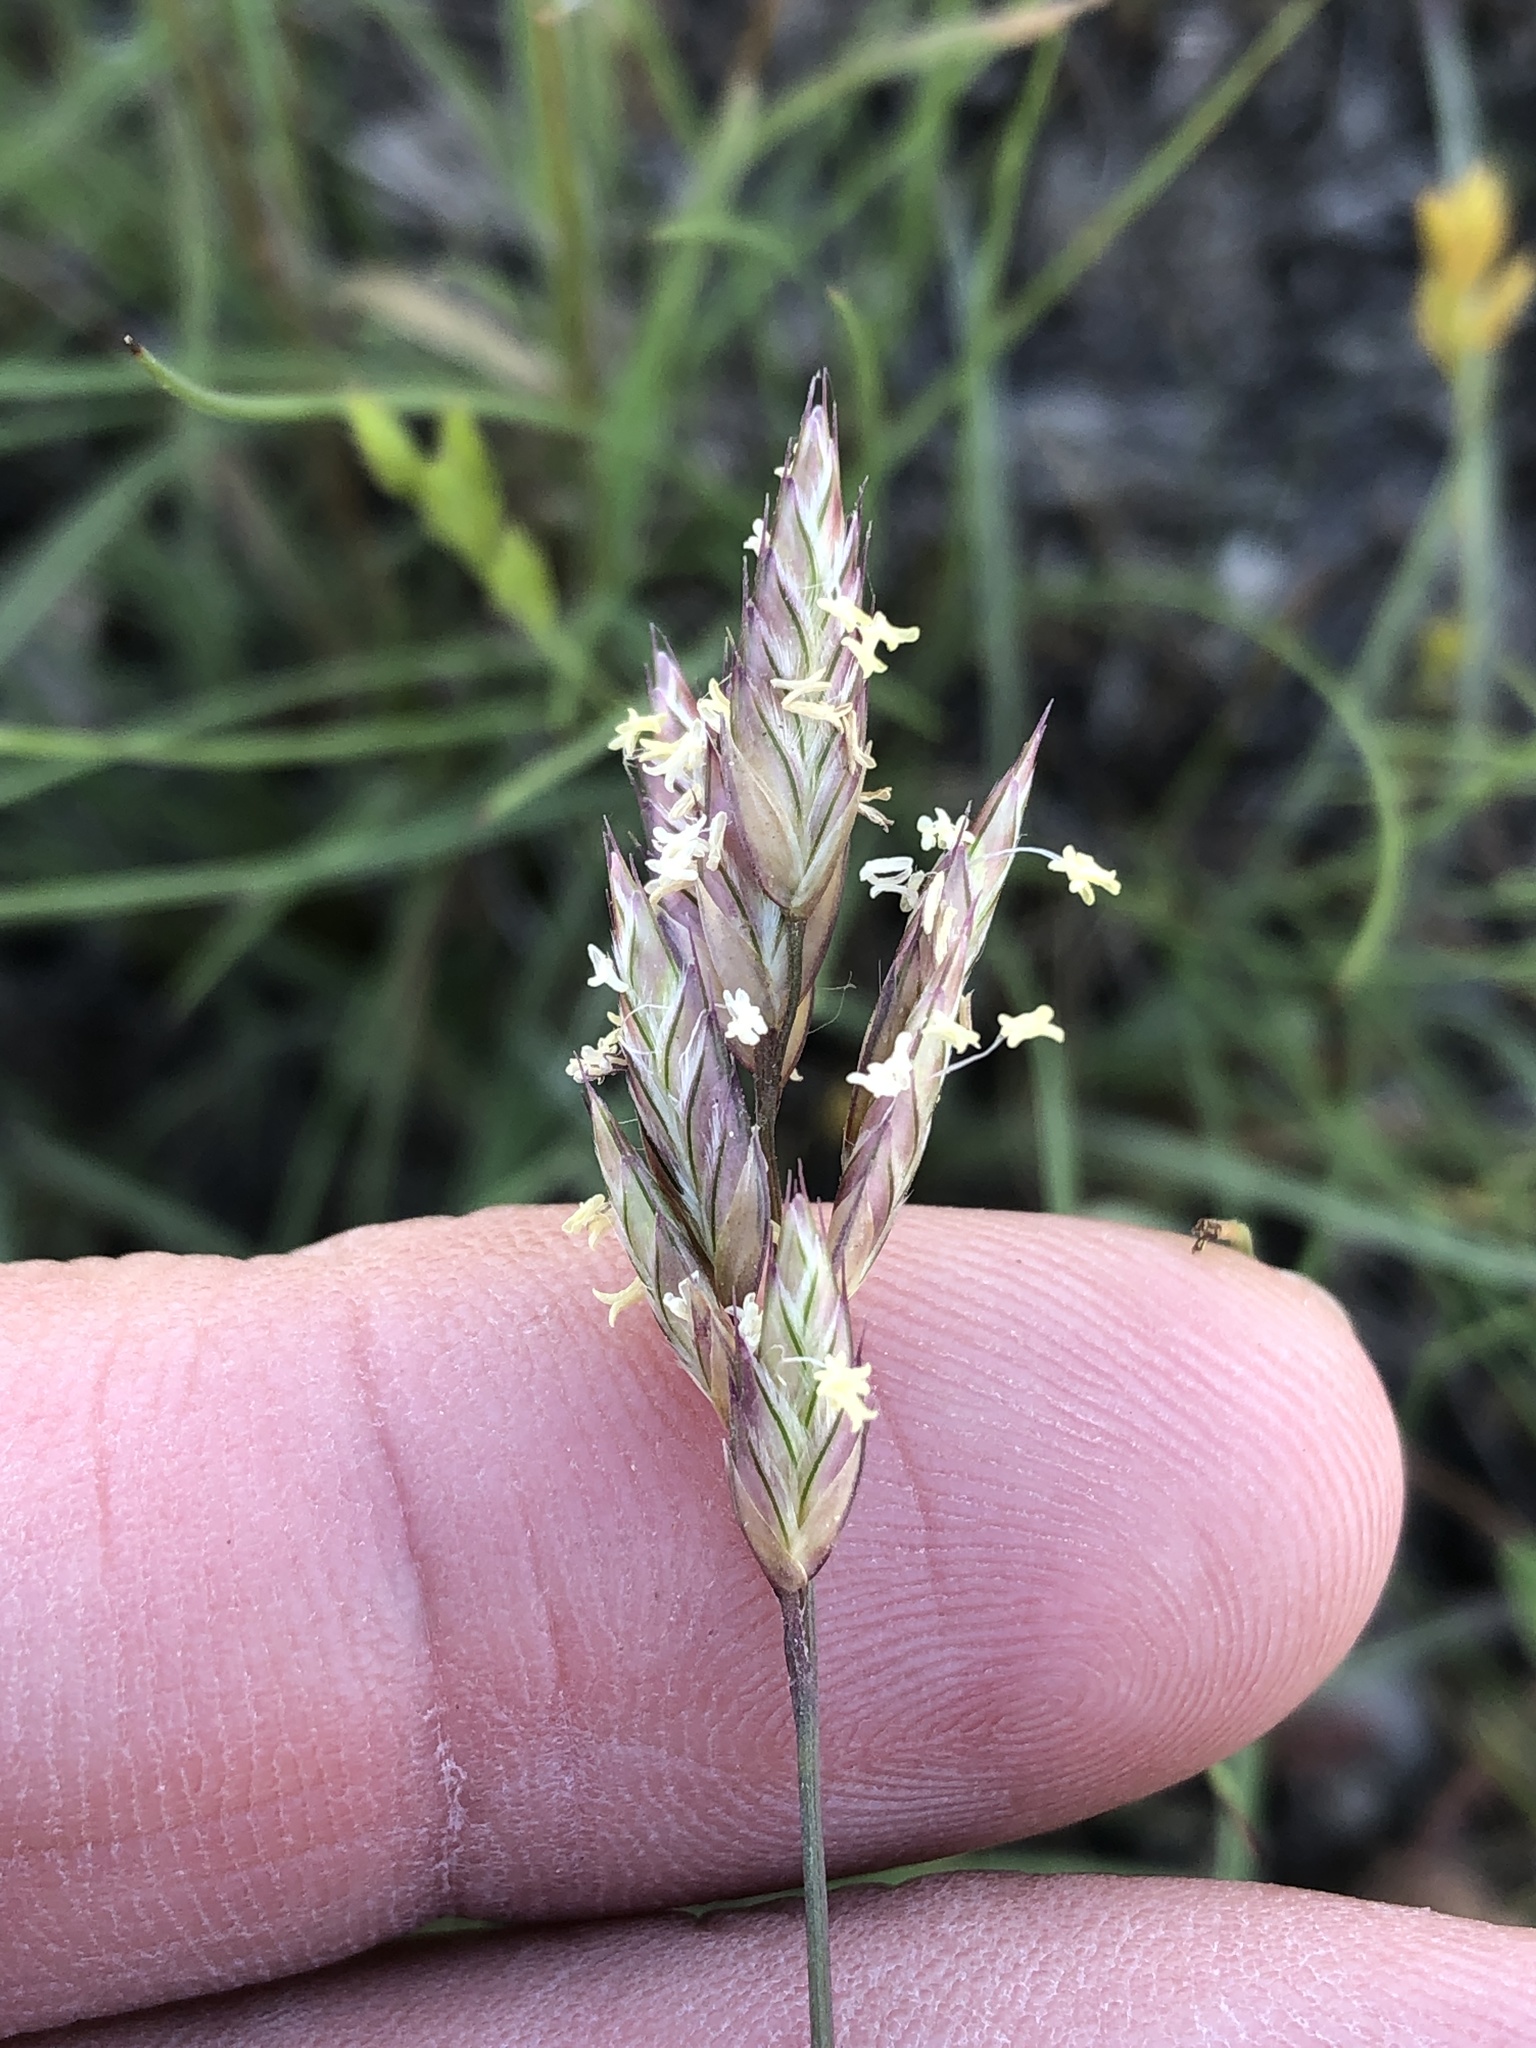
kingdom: Plantae
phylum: Tracheophyta
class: Liliopsida
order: Poales
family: Poaceae
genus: Erioneuron
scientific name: Erioneuron pilosum
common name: Hairy woolly grass
